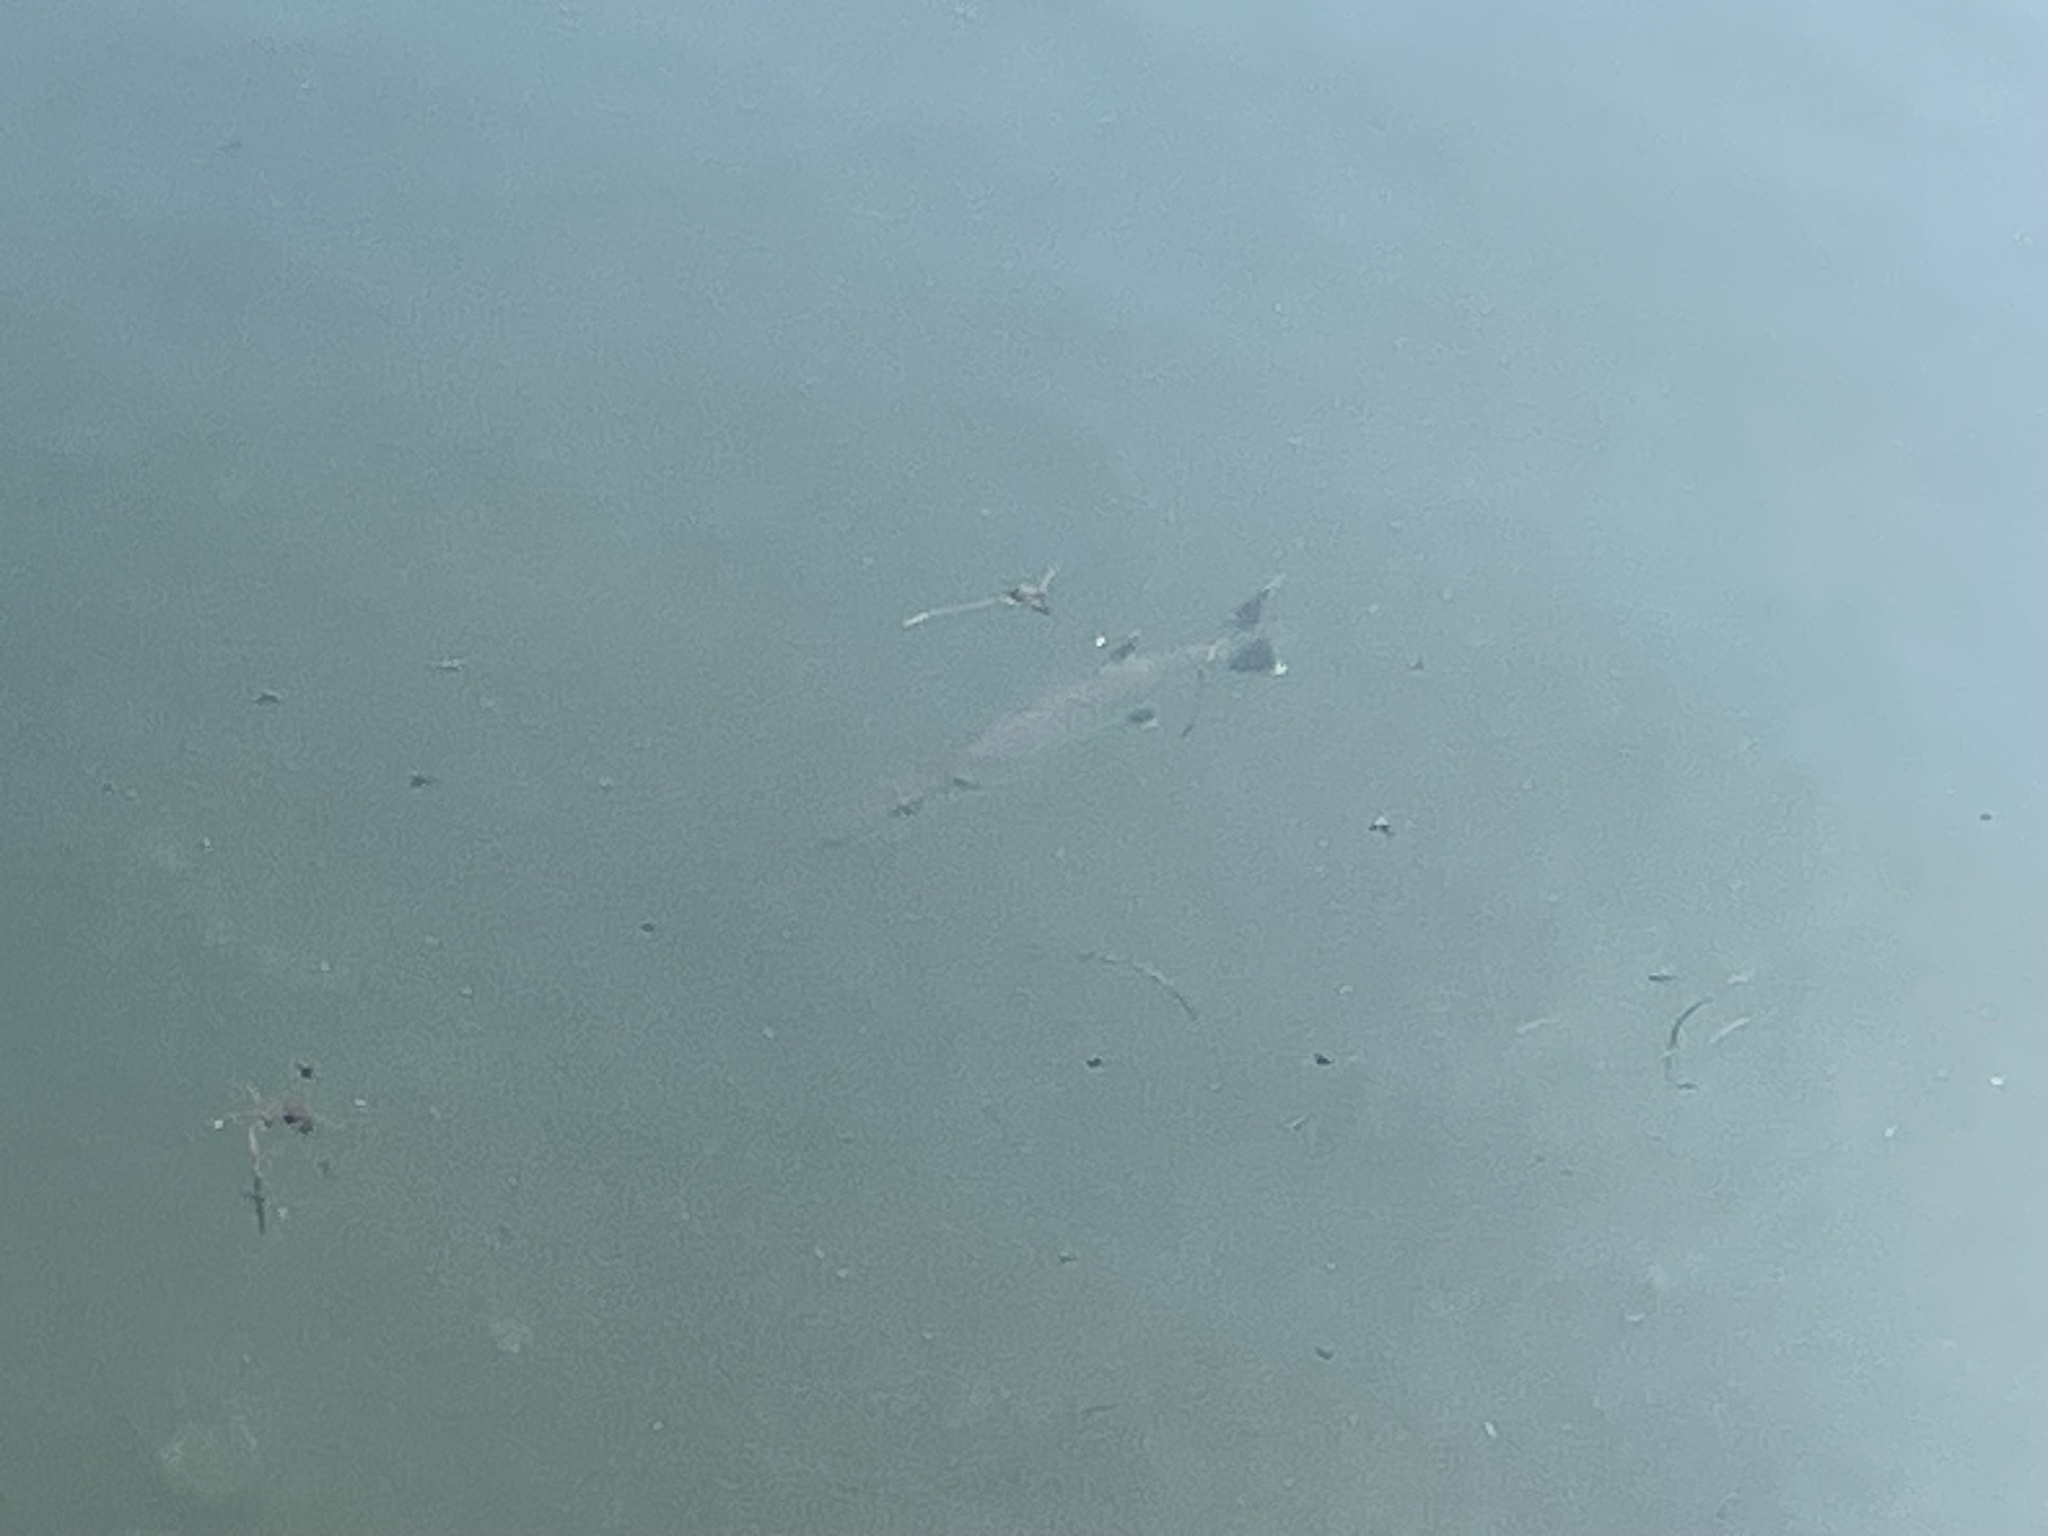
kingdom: Animalia
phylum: Chordata
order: Perciformes
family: Sphyraenidae
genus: Sphyraena
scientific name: Sphyraena barracuda
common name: Great barracuda
